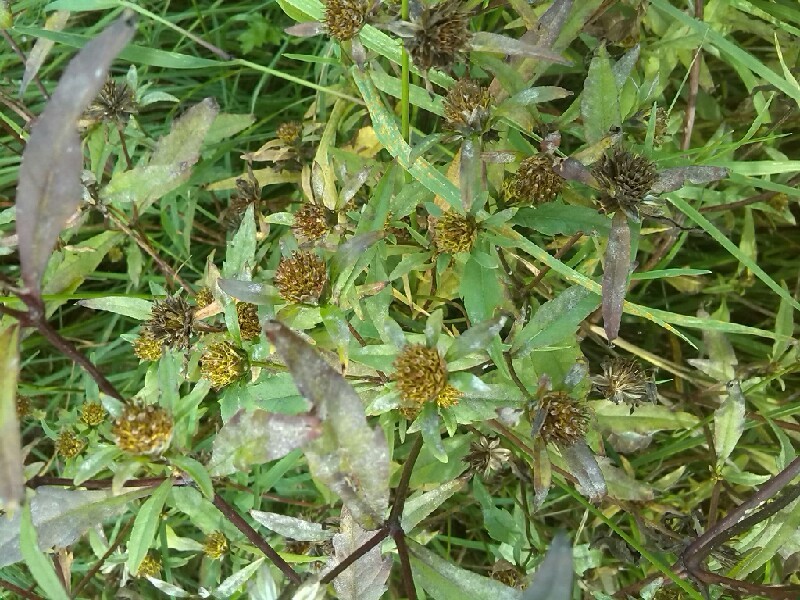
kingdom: Plantae
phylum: Tracheophyta
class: Magnoliopsida
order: Asterales
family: Asteraceae
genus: Bidens
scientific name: Bidens connata
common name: London bur-marigold
